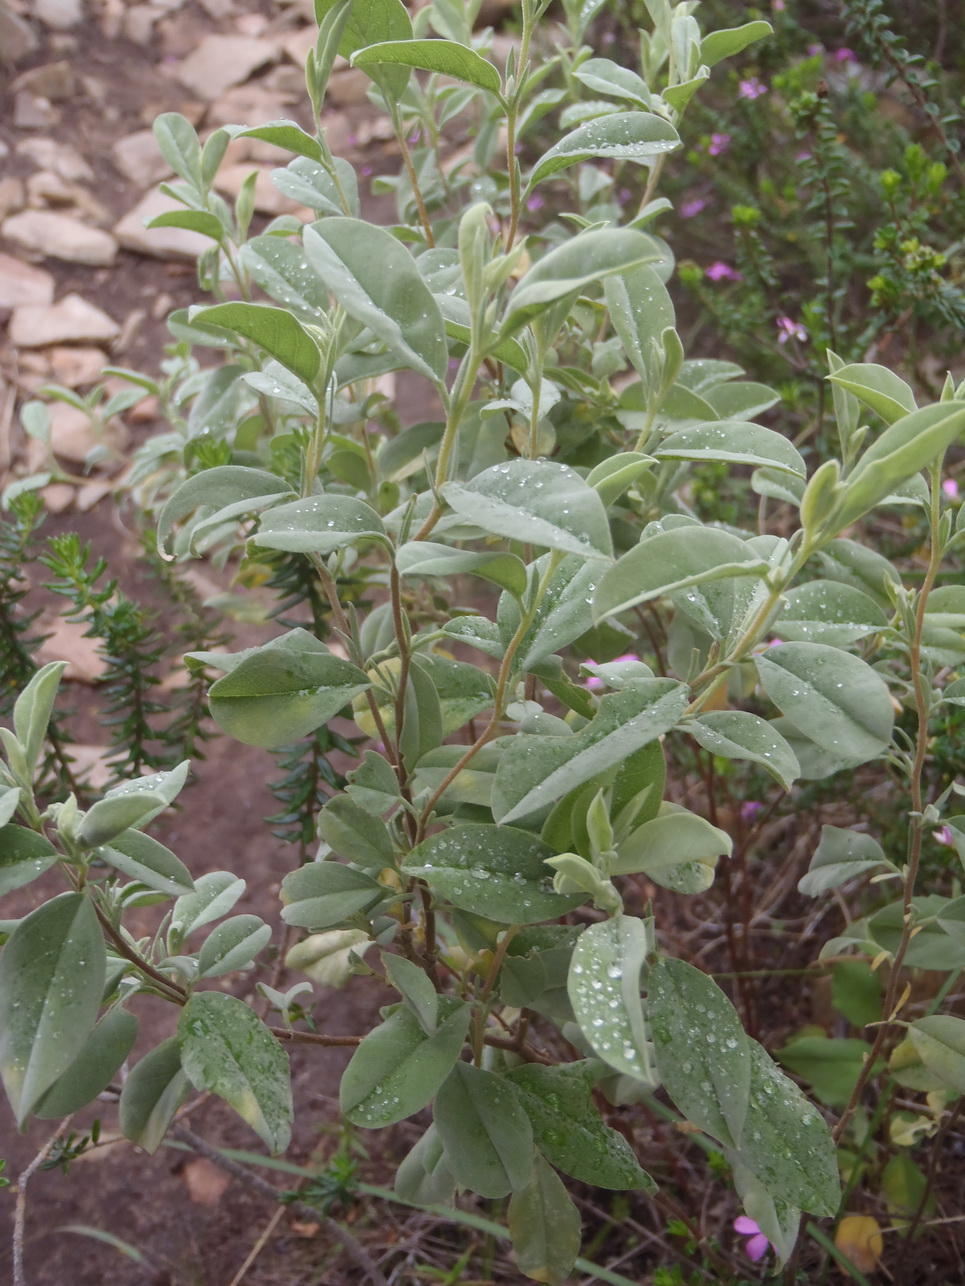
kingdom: Plantae
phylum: Tracheophyta
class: Magnoliopsida
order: Malvales
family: Malvaceae
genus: Hermannia
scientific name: Hermannia lavandulifolia
